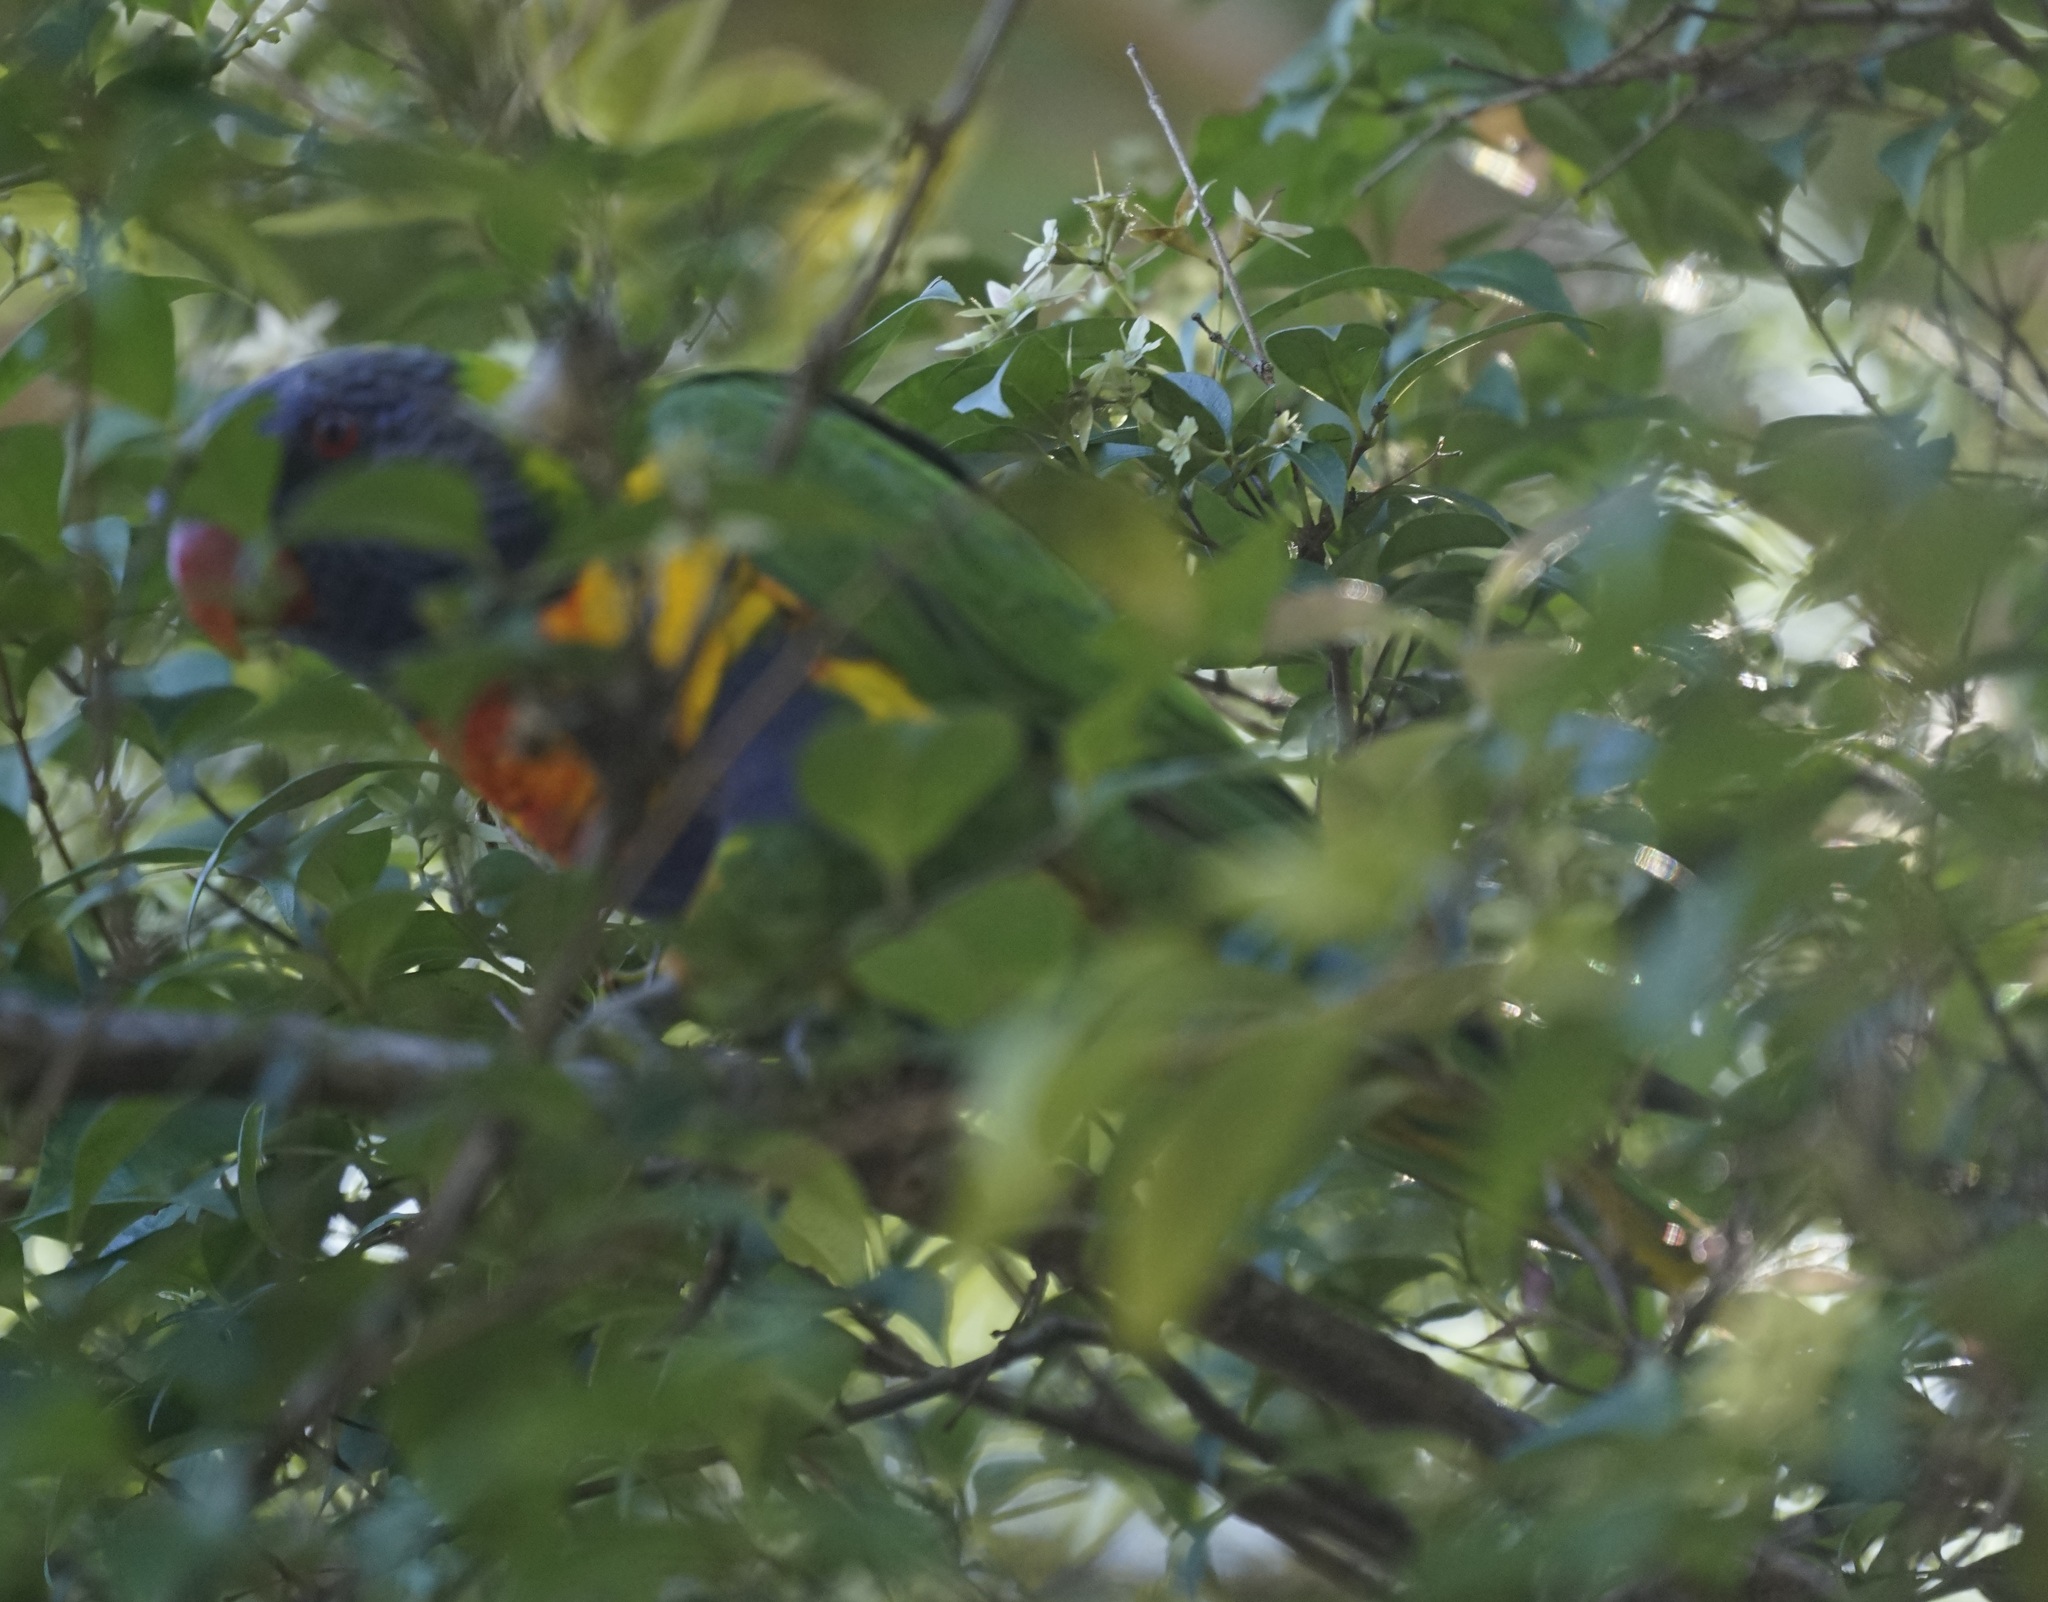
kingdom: Animalia
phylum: Chordata
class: Aves
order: Psittaciformes
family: Psittacidae
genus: Trichoglossus
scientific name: Trichoglossus haematodus
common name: Coconut lorikeet
